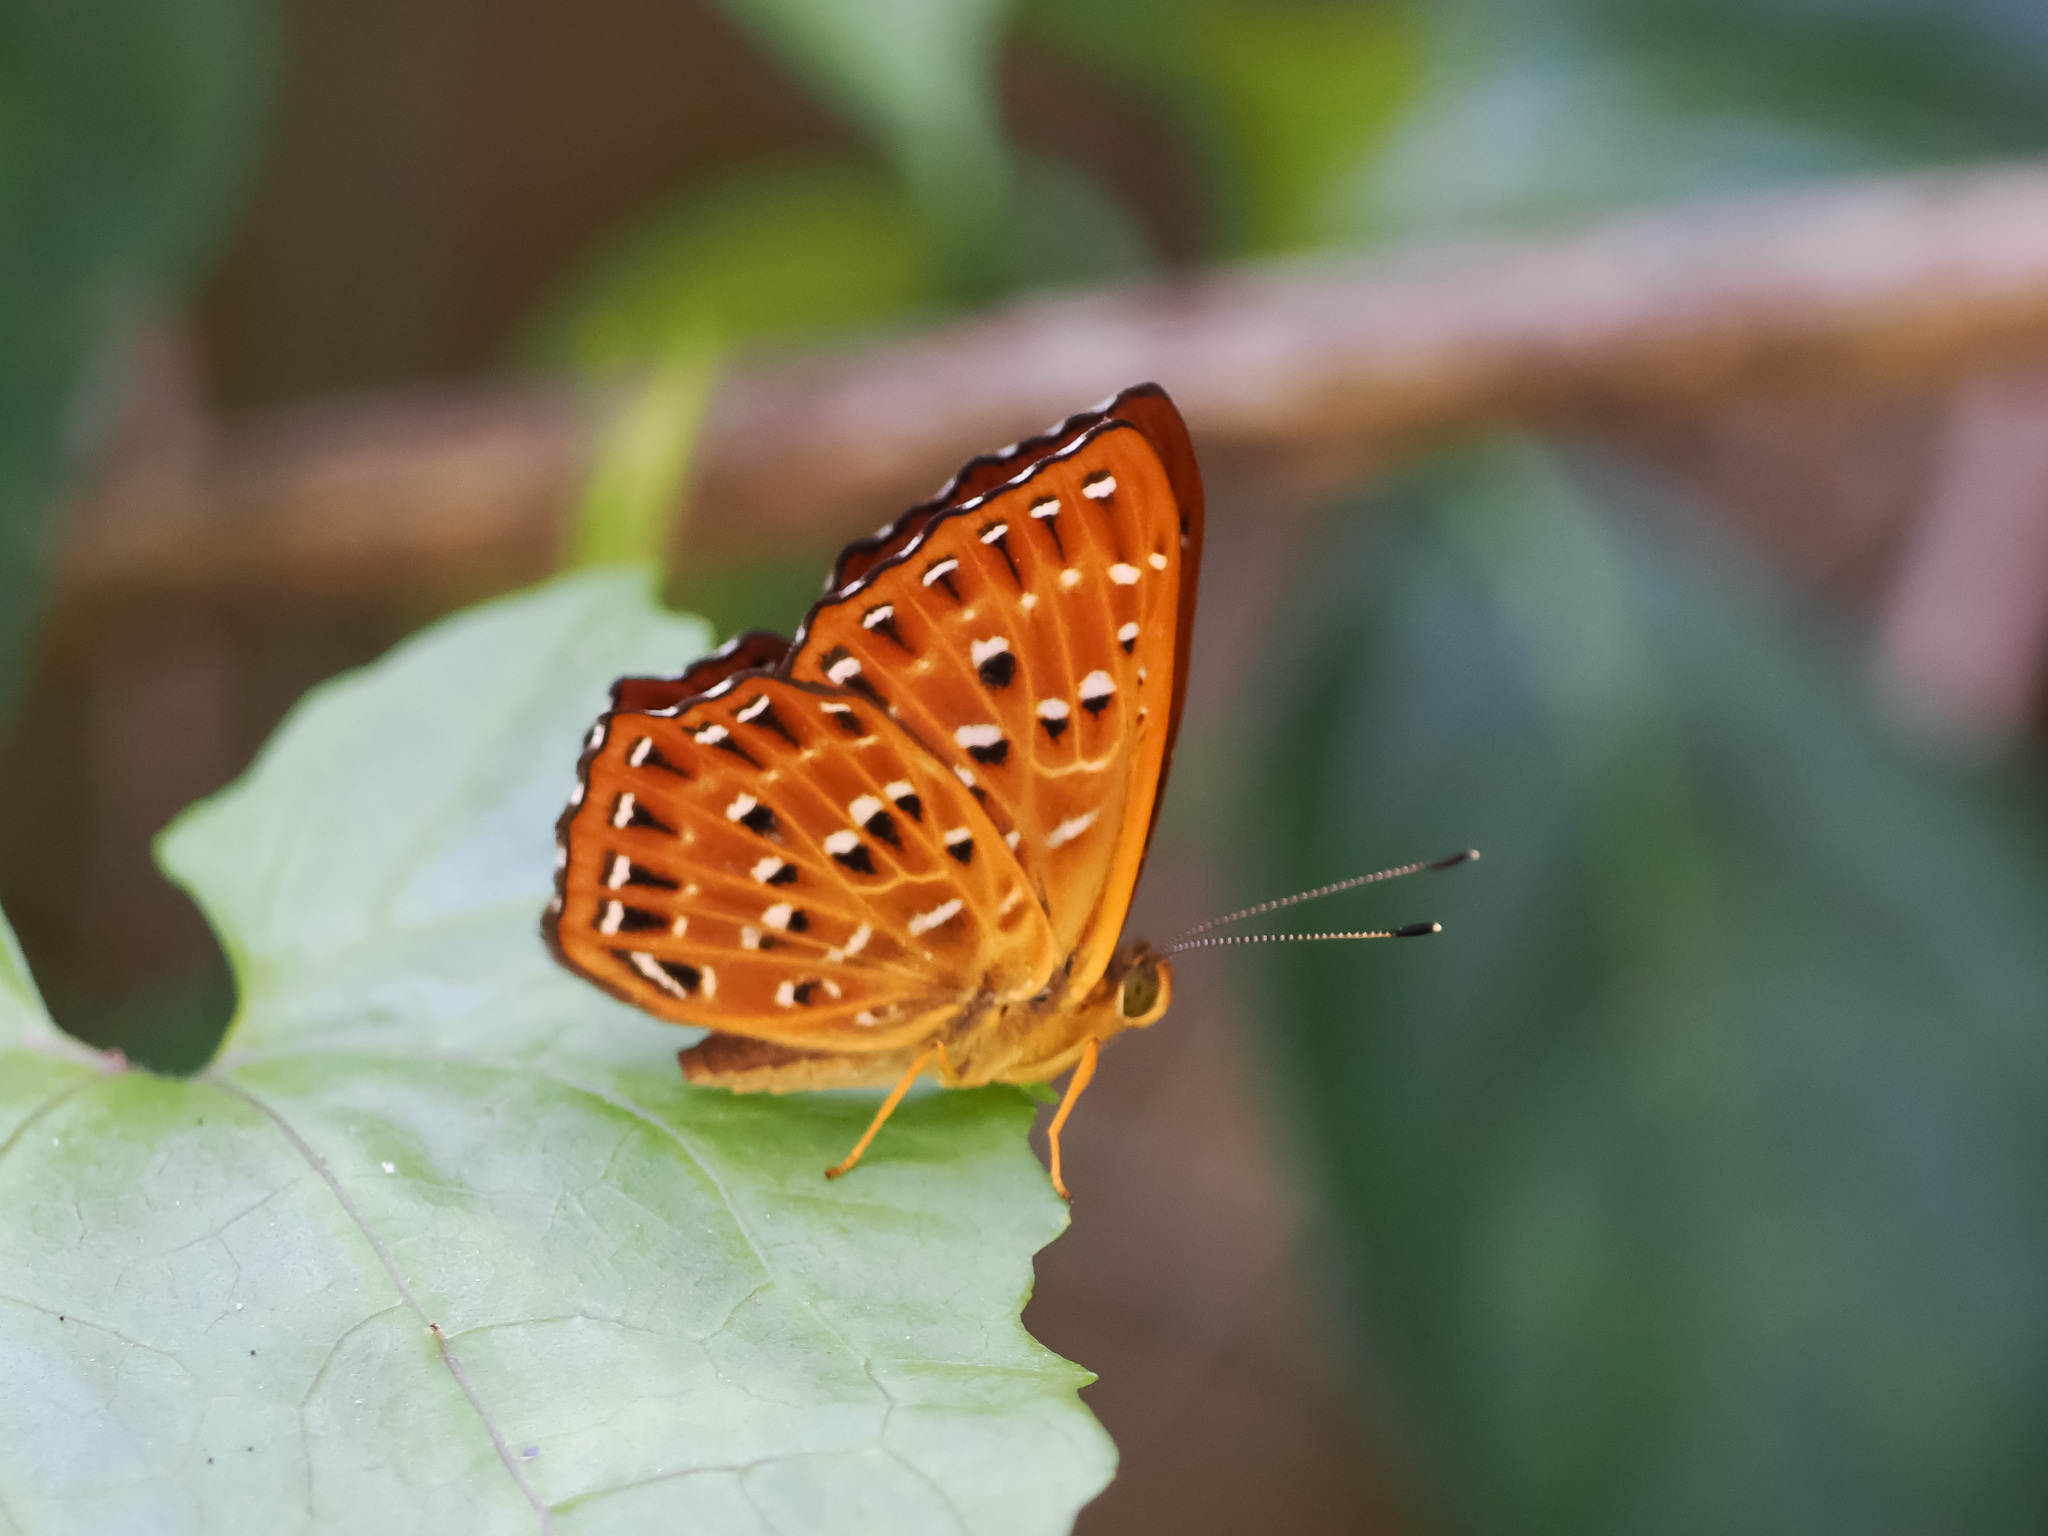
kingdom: Animalia
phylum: Arthropoda
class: Insecta
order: Lepidoptera
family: Riodinidae
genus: Zemeros
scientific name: Zemeros flegyas
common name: Punchinello
